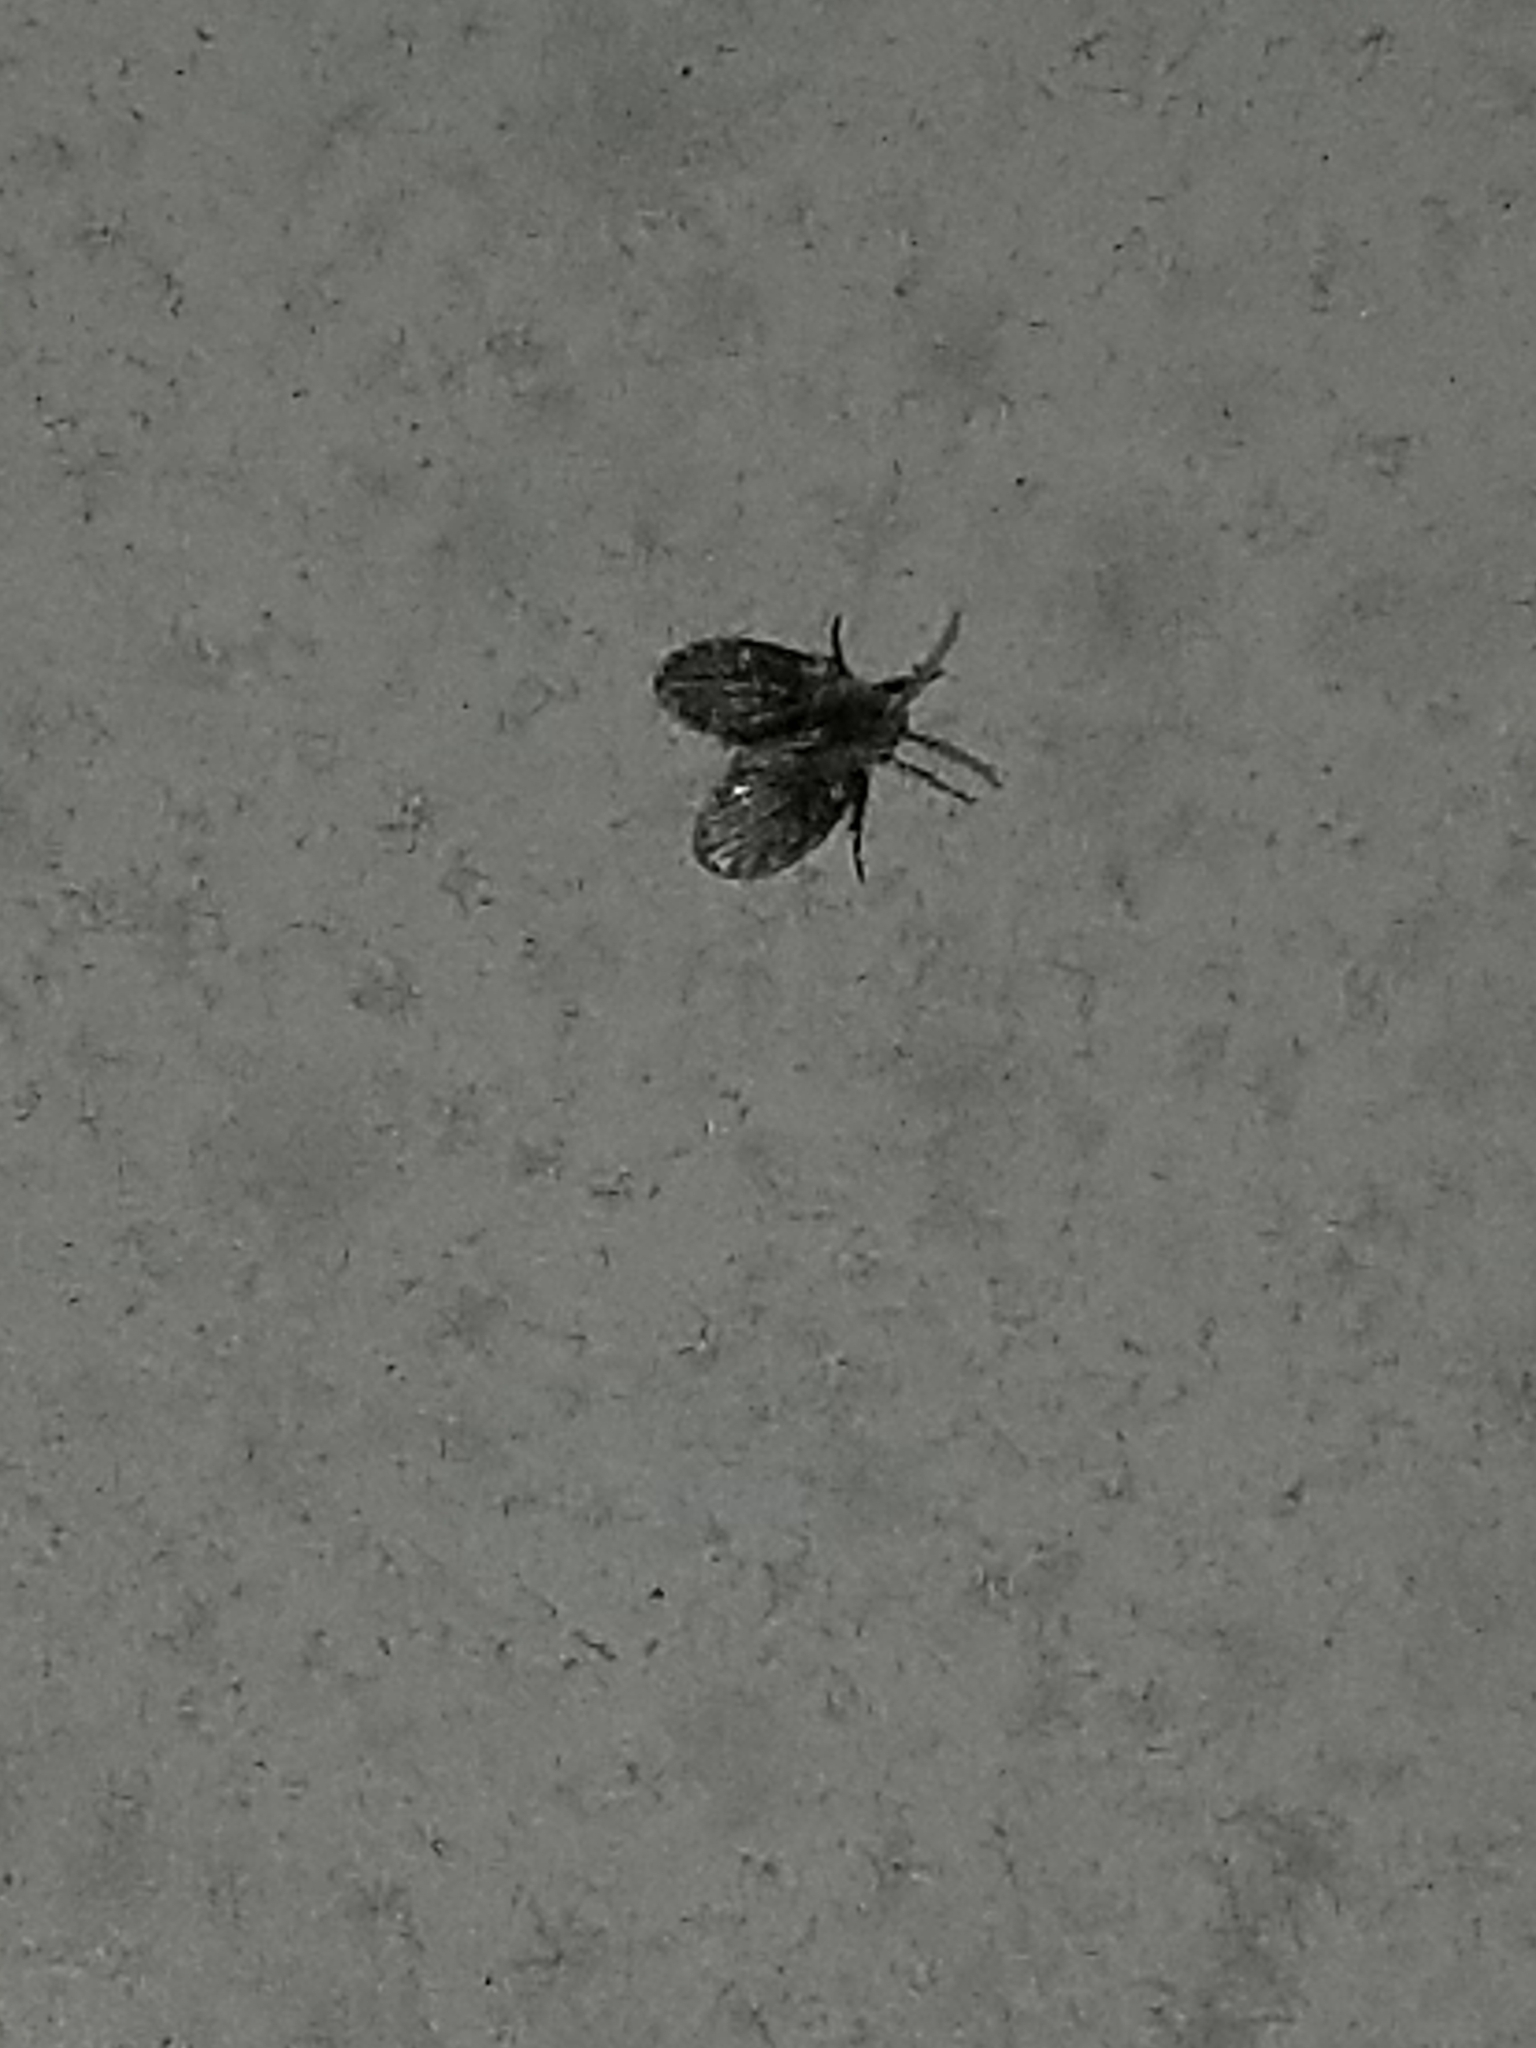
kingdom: Animalia
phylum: Arthropoda
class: Insecta
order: Diptera
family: Psychodidae
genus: Lepiseodina
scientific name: Lepiseodina
